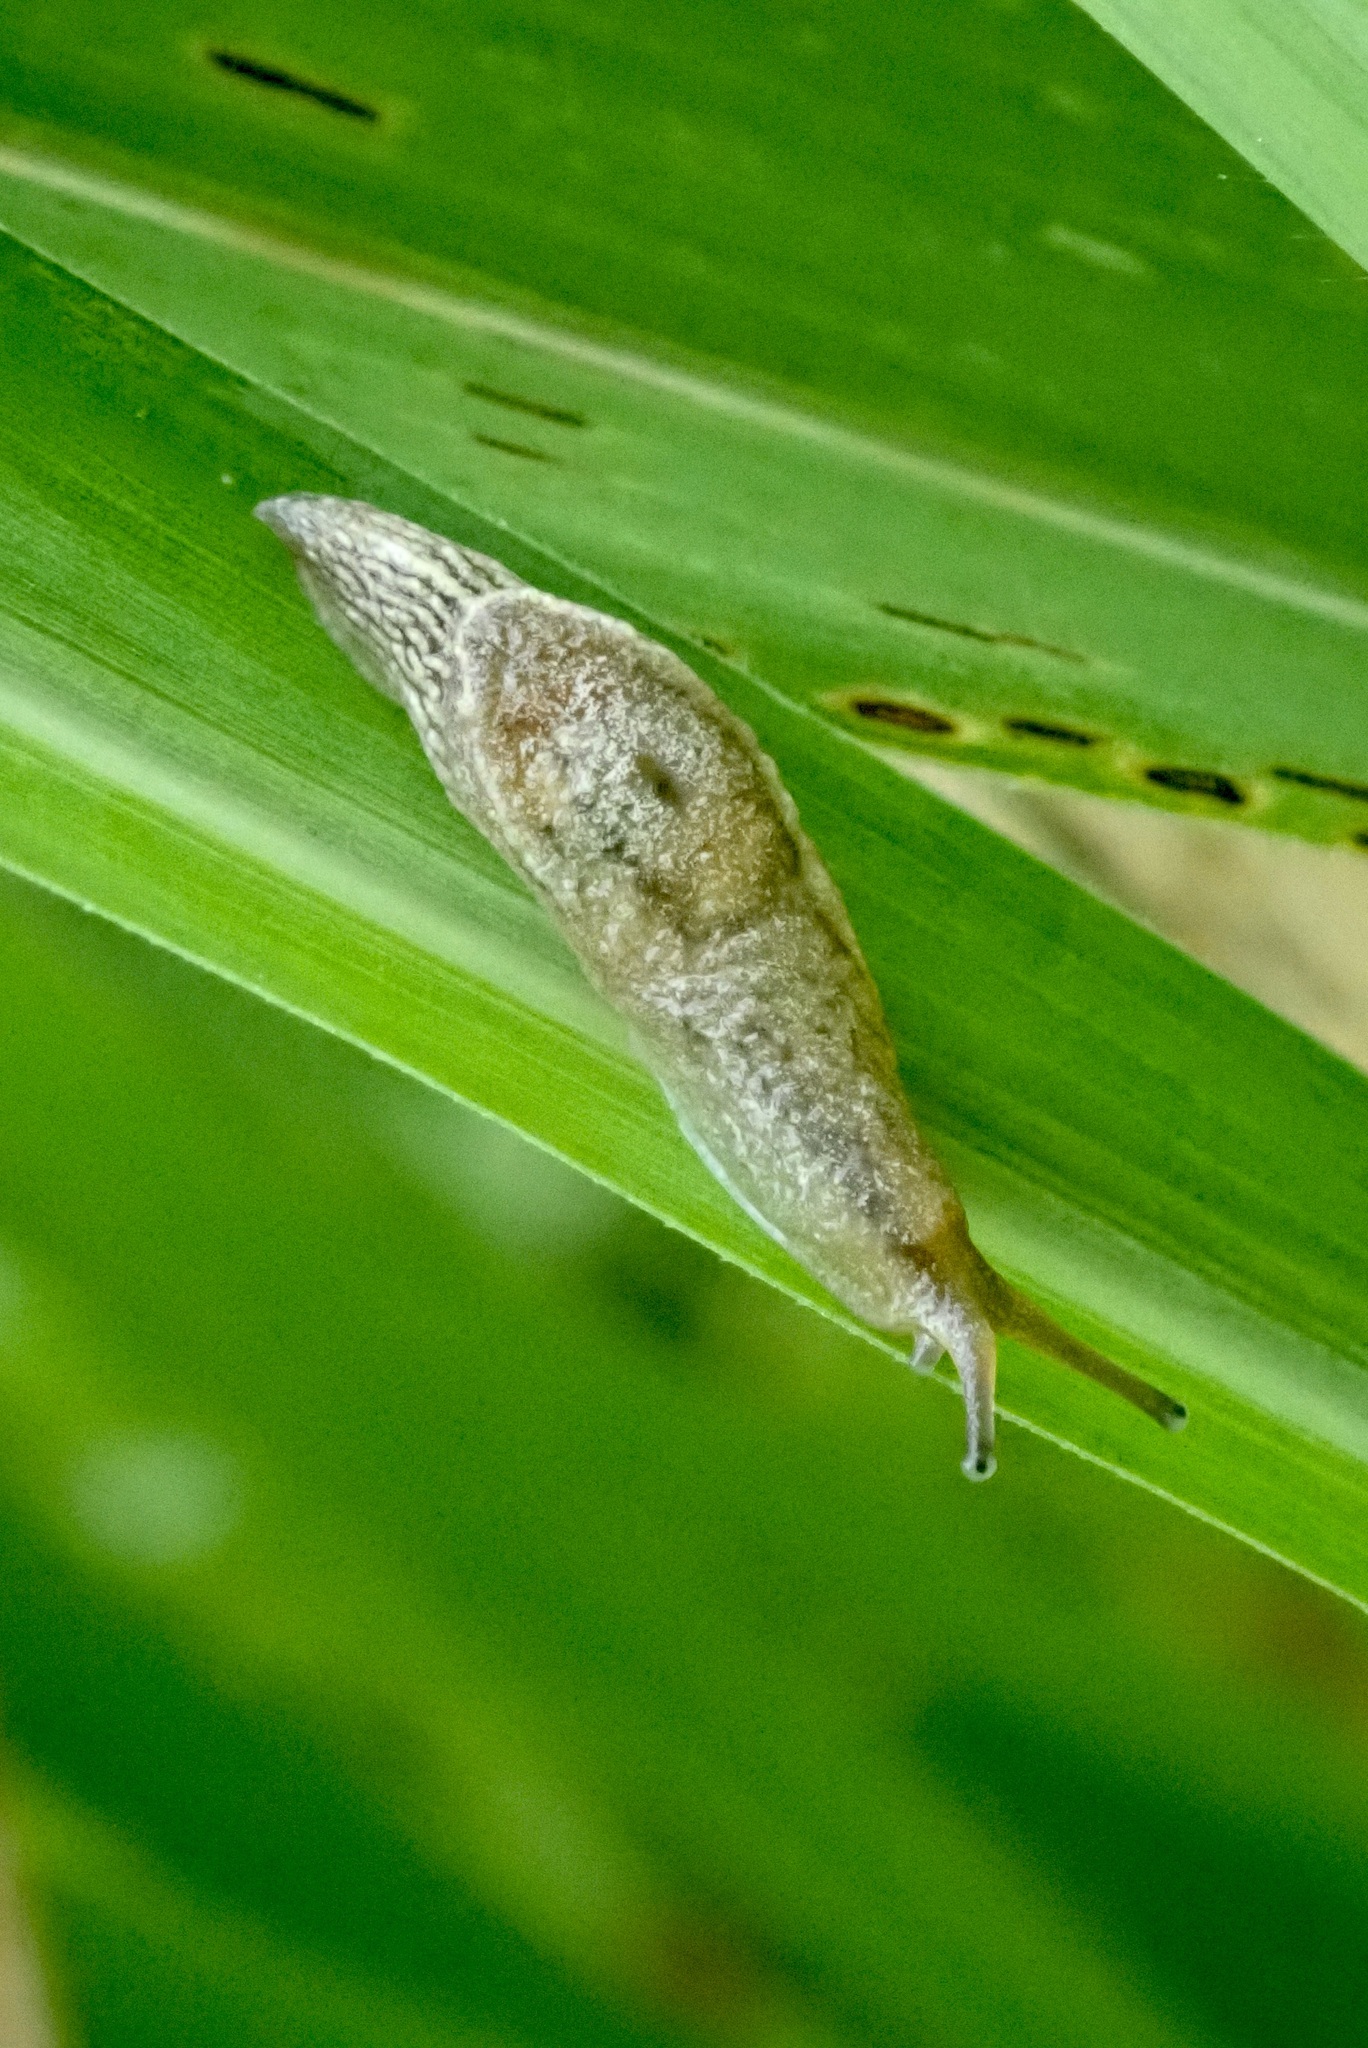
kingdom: Animalia
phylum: Mollusca
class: Gastropoda
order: Stylommatophora
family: Ariophantidae
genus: Parmarion
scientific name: Parmarion martensi
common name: Semi-slug
